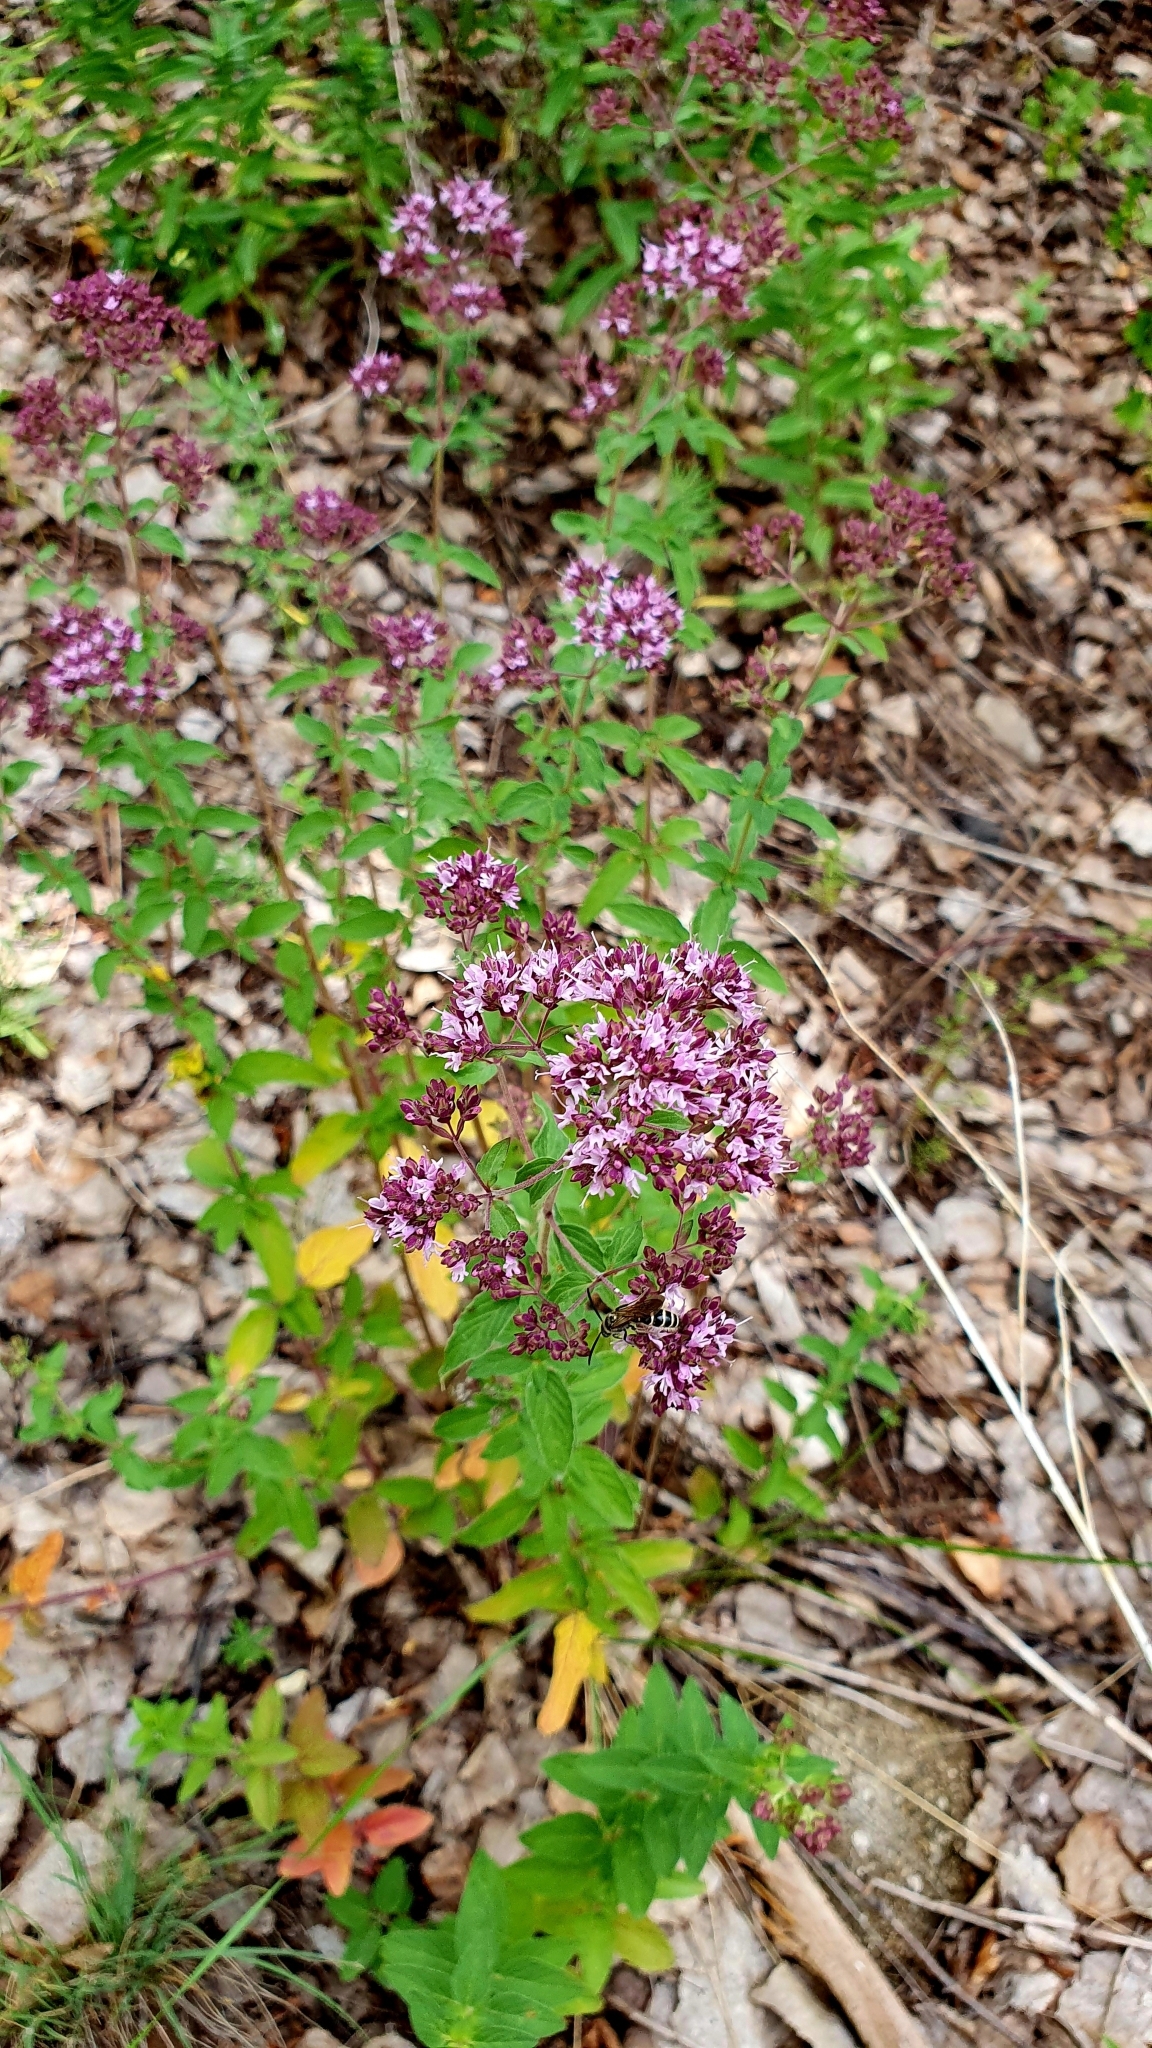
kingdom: Plantae
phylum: Tracheophyta
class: Magnoliopsida
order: Lamiales
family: Lamiaceae
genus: Origanum
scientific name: Origanum vulgare
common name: Wild marjoram
